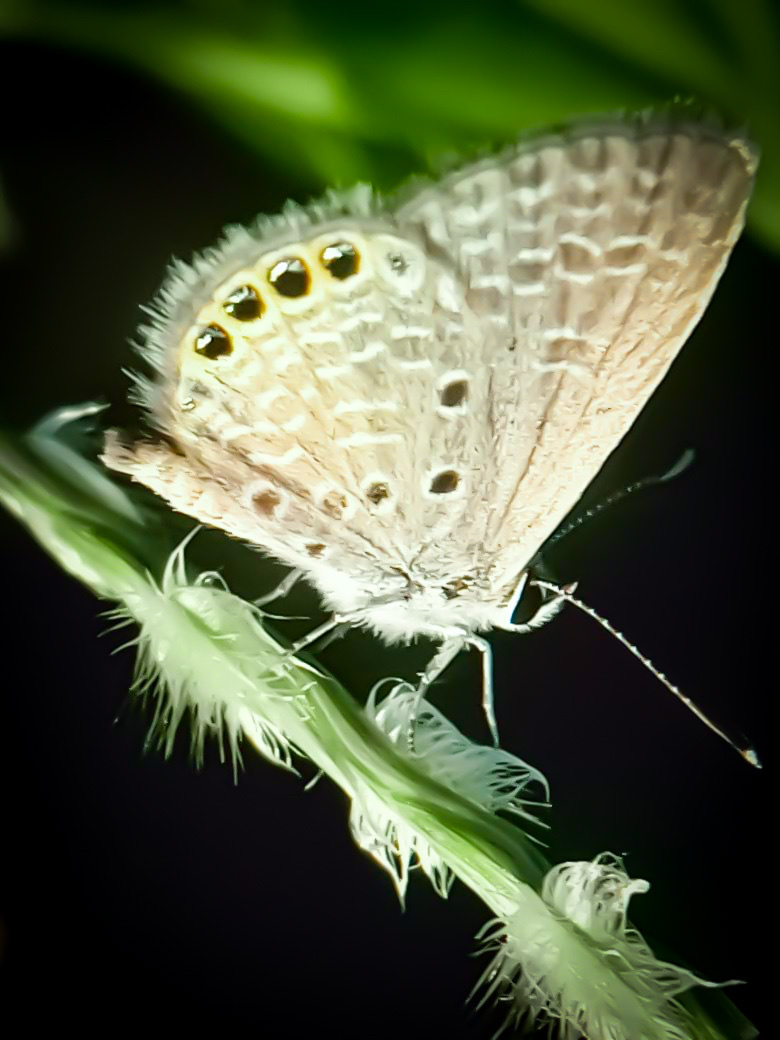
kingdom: Animalia
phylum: Arthropoda
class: Insecta
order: Lepidoptera
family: Lycaenidae
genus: Freyeria
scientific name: Freyeria putli
